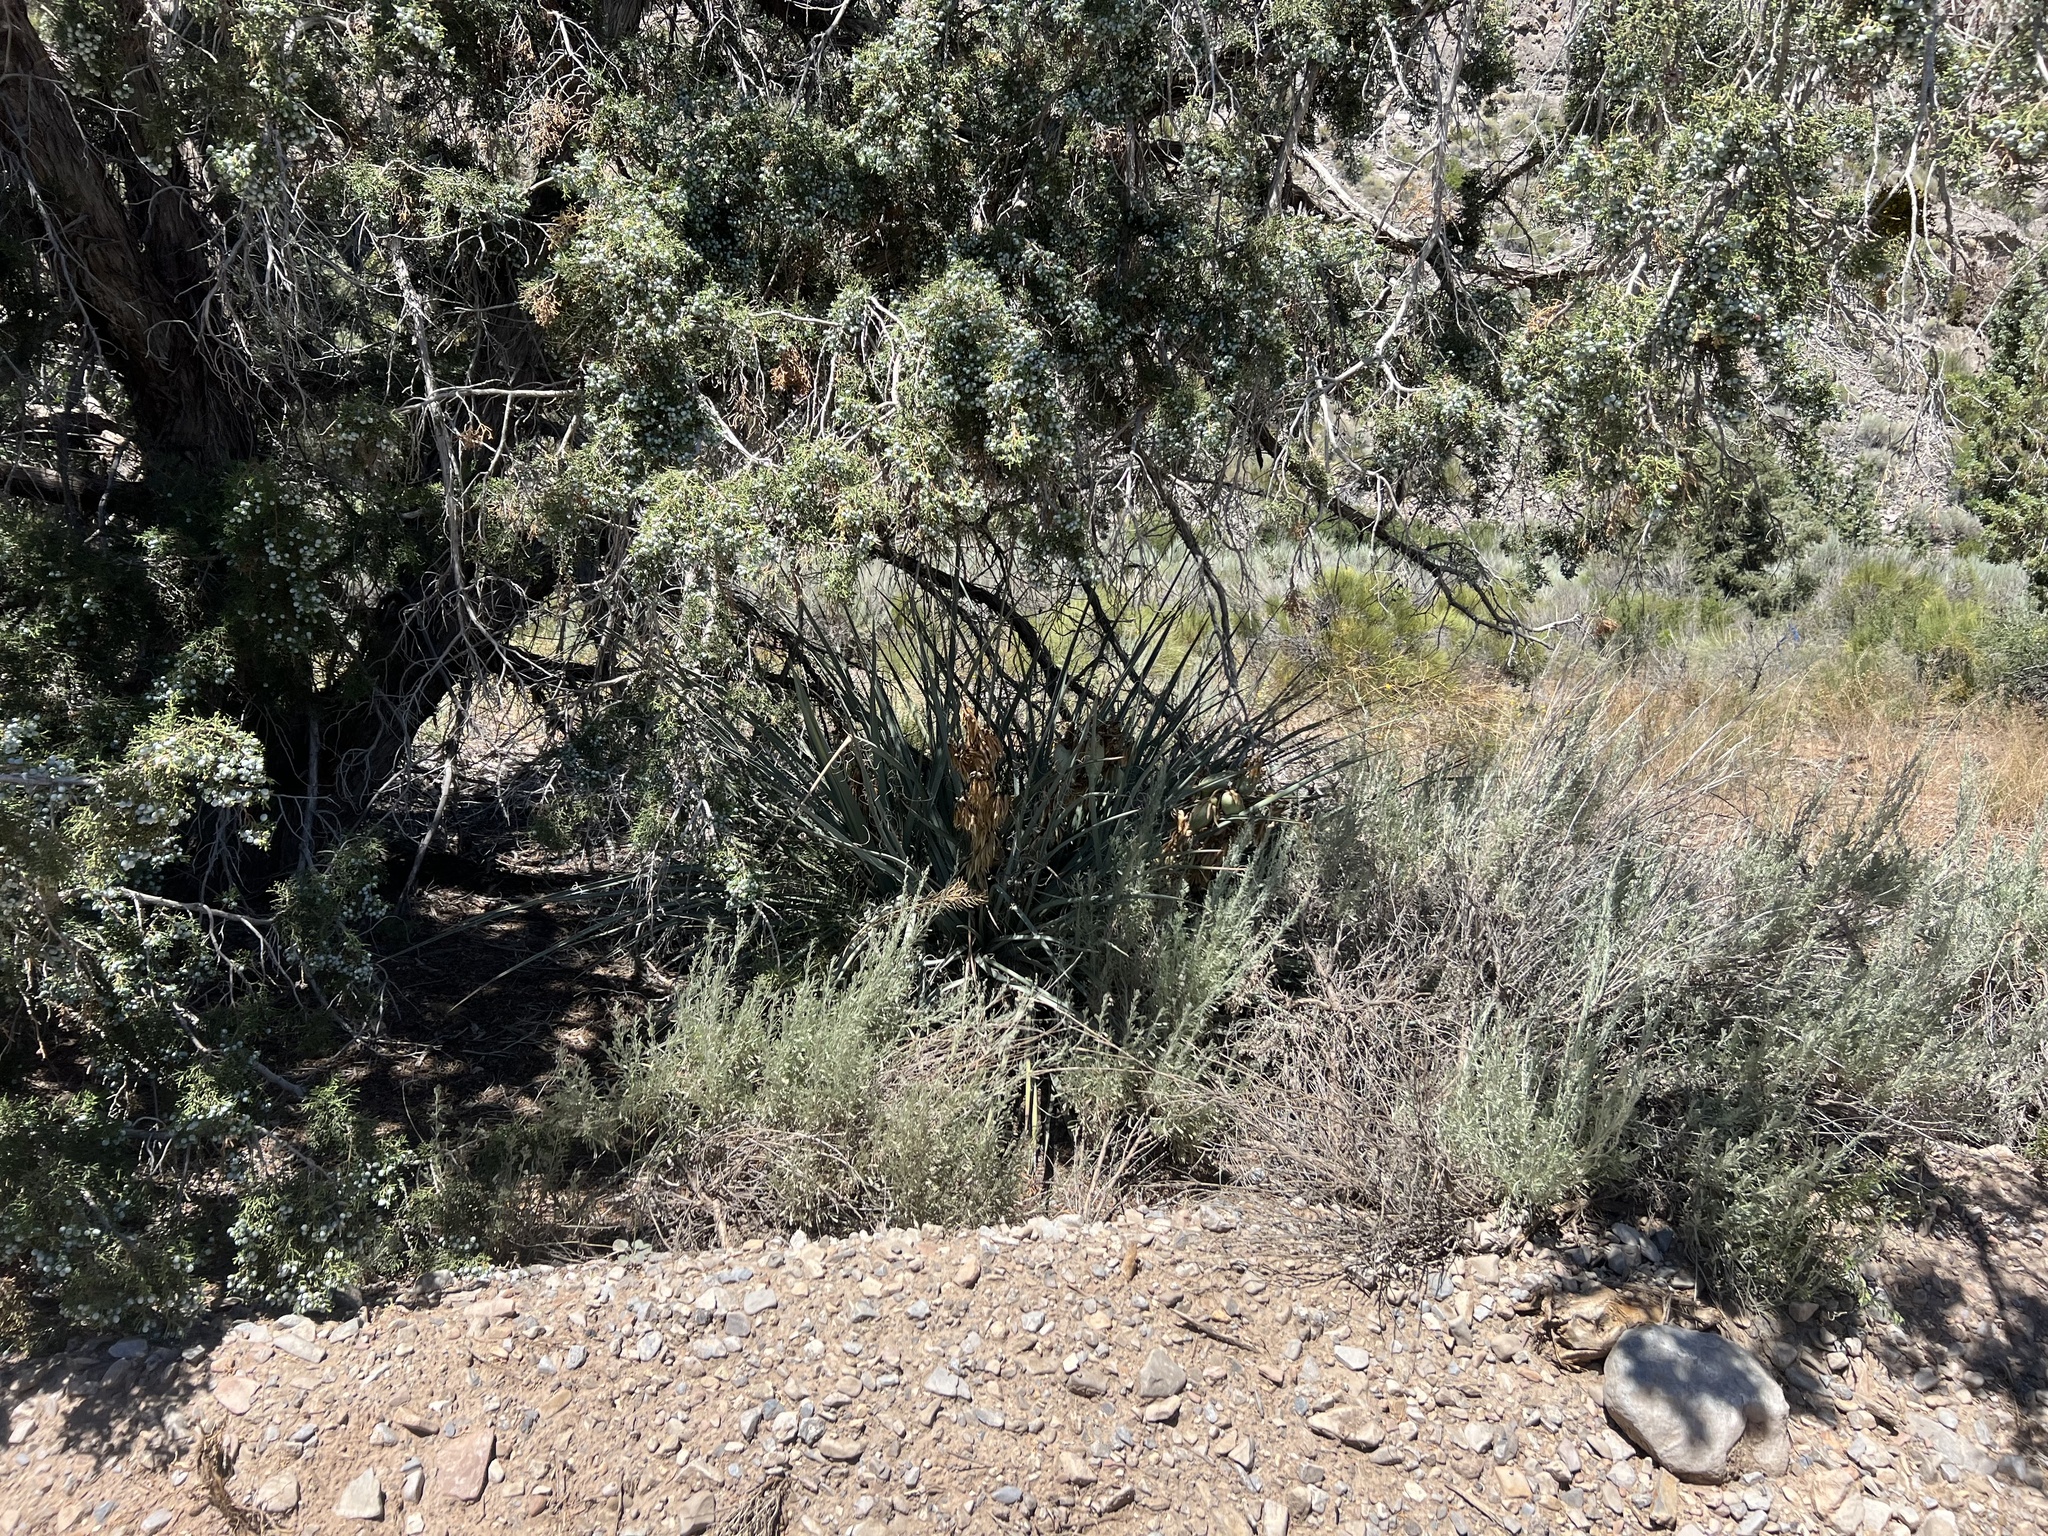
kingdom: Plantae
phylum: Tracheophyta
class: Liliopsida
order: Asparagales
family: Asparagaceae
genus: Yucca
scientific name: Yucca baccata
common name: Banana yucca
